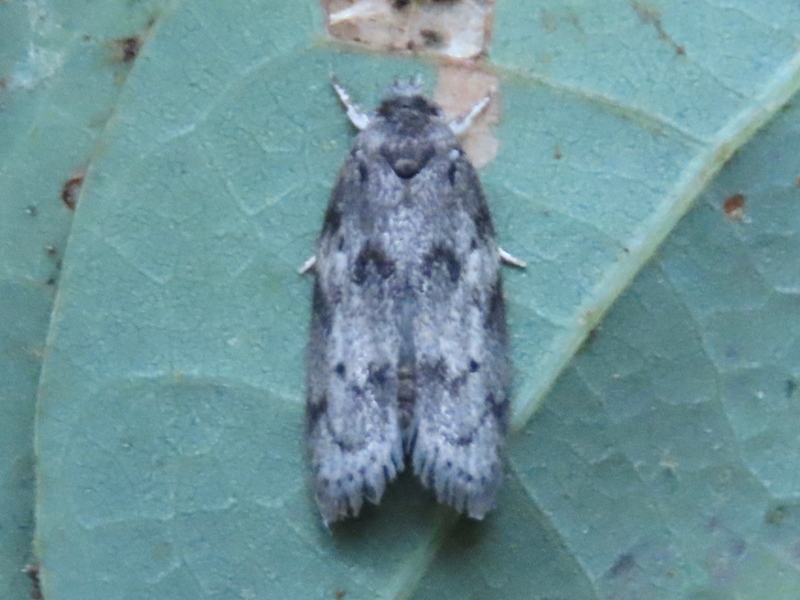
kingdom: Animalia
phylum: Arthropoda
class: Insecta
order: Lepidoptera
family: Depressariidae
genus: Antaeotricha
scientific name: Antaeotricha humilis
